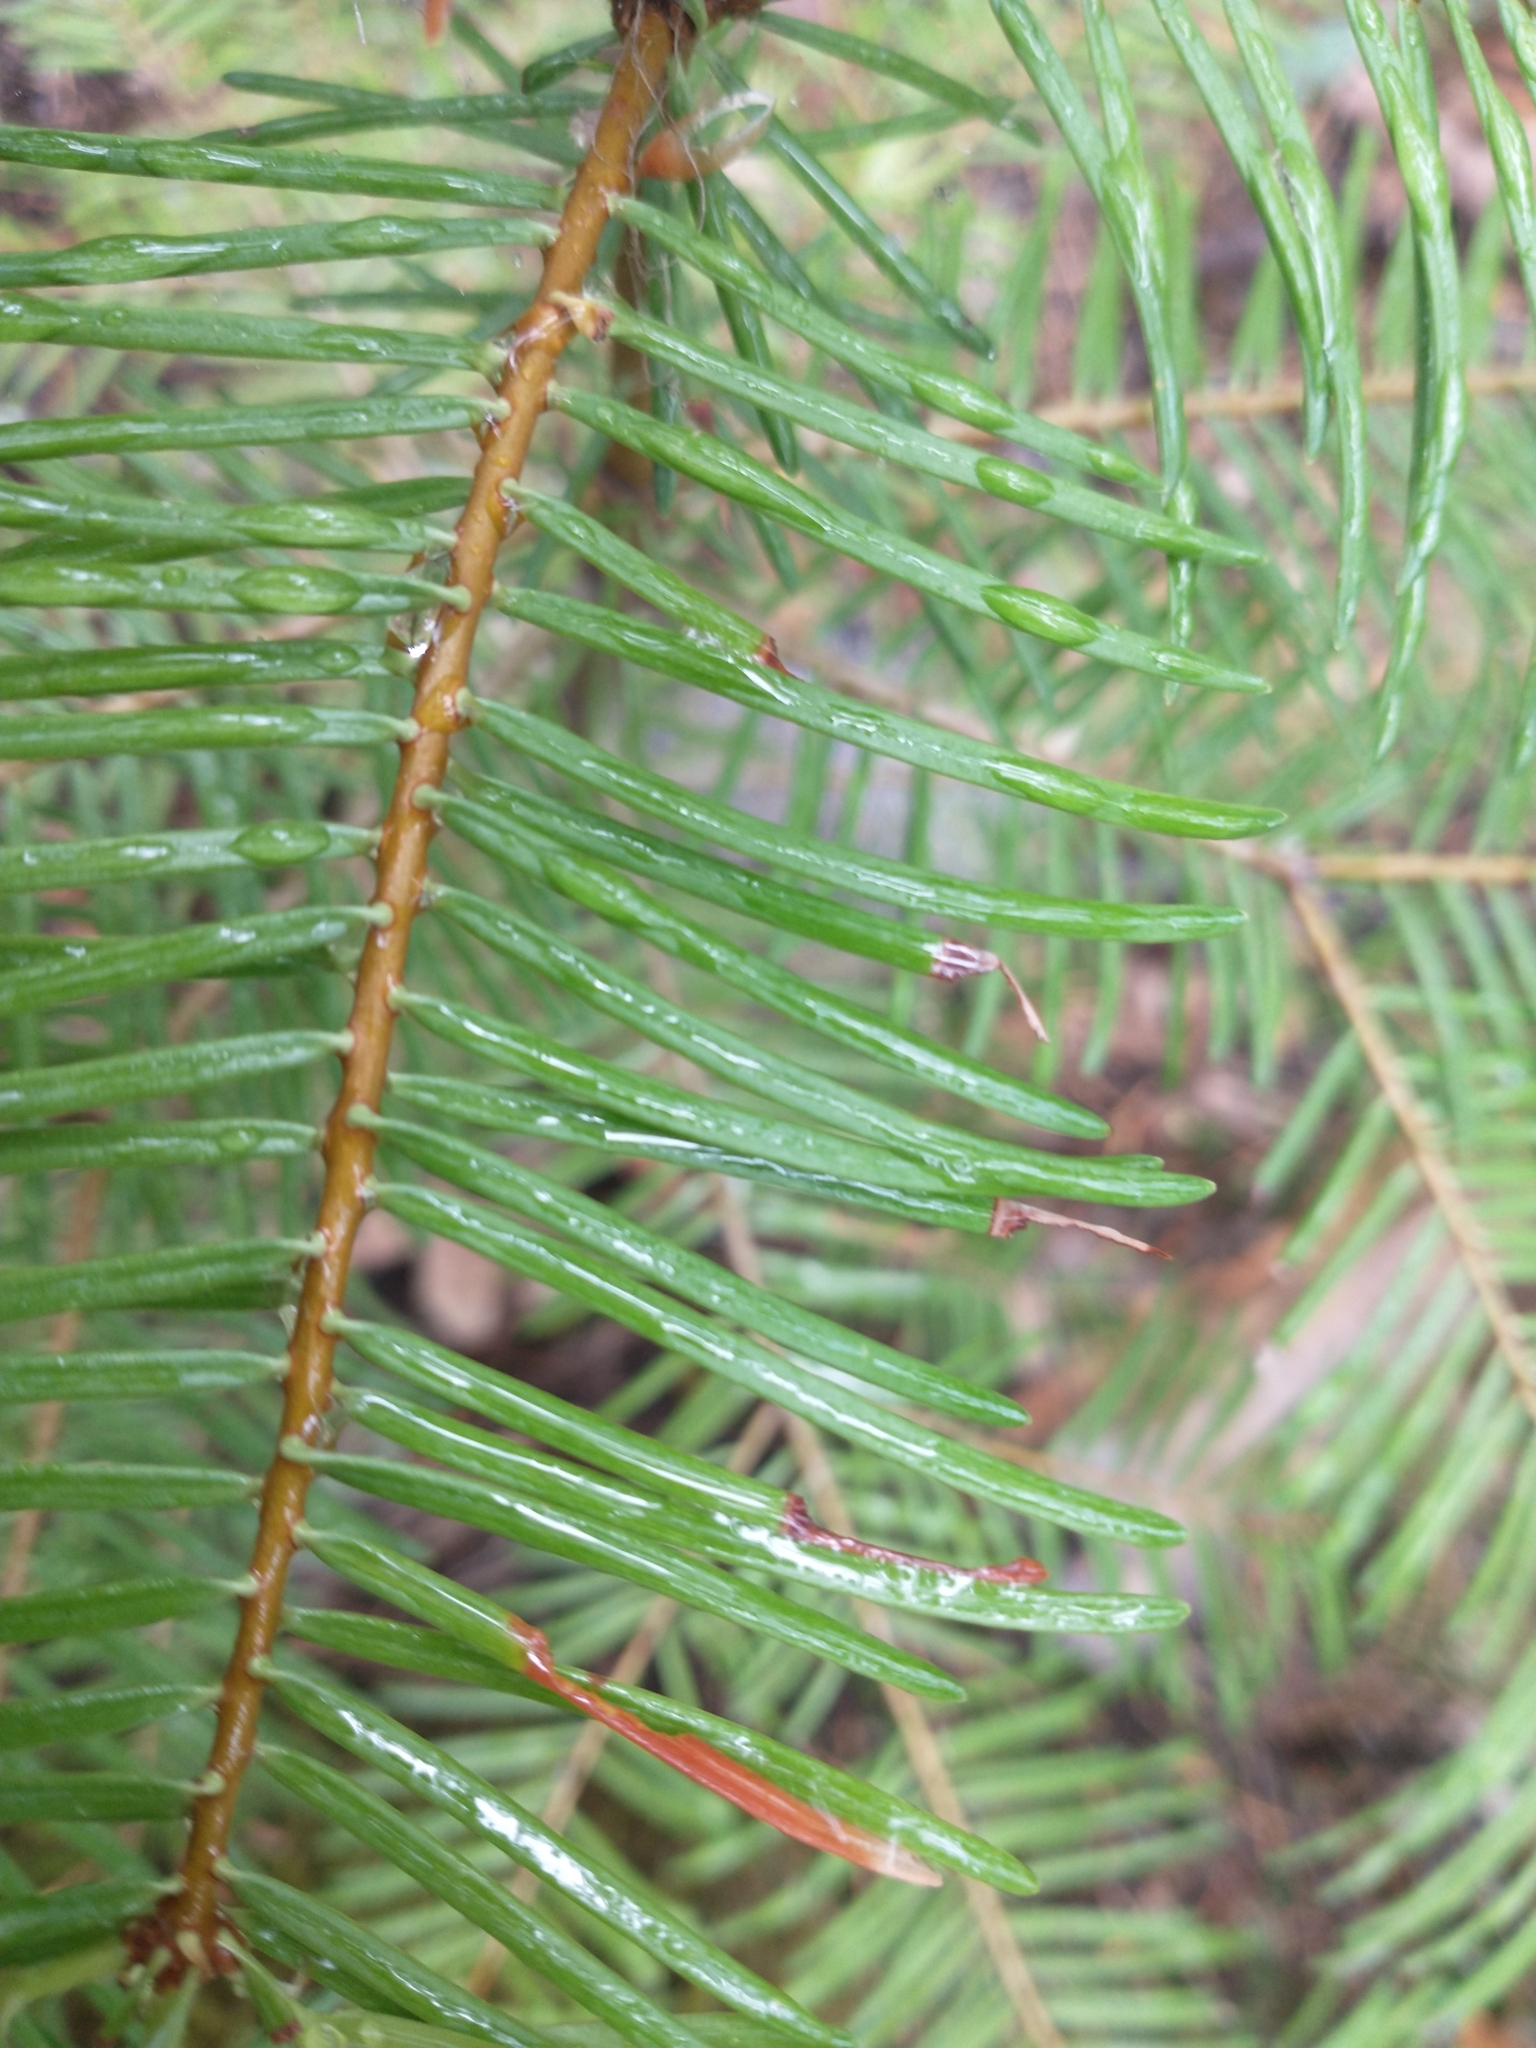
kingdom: Plantae
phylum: Tracheophyta
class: Pinopsida
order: Pinales
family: Pinaceae
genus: Abies
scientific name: Abies concolor
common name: Colorado fir
